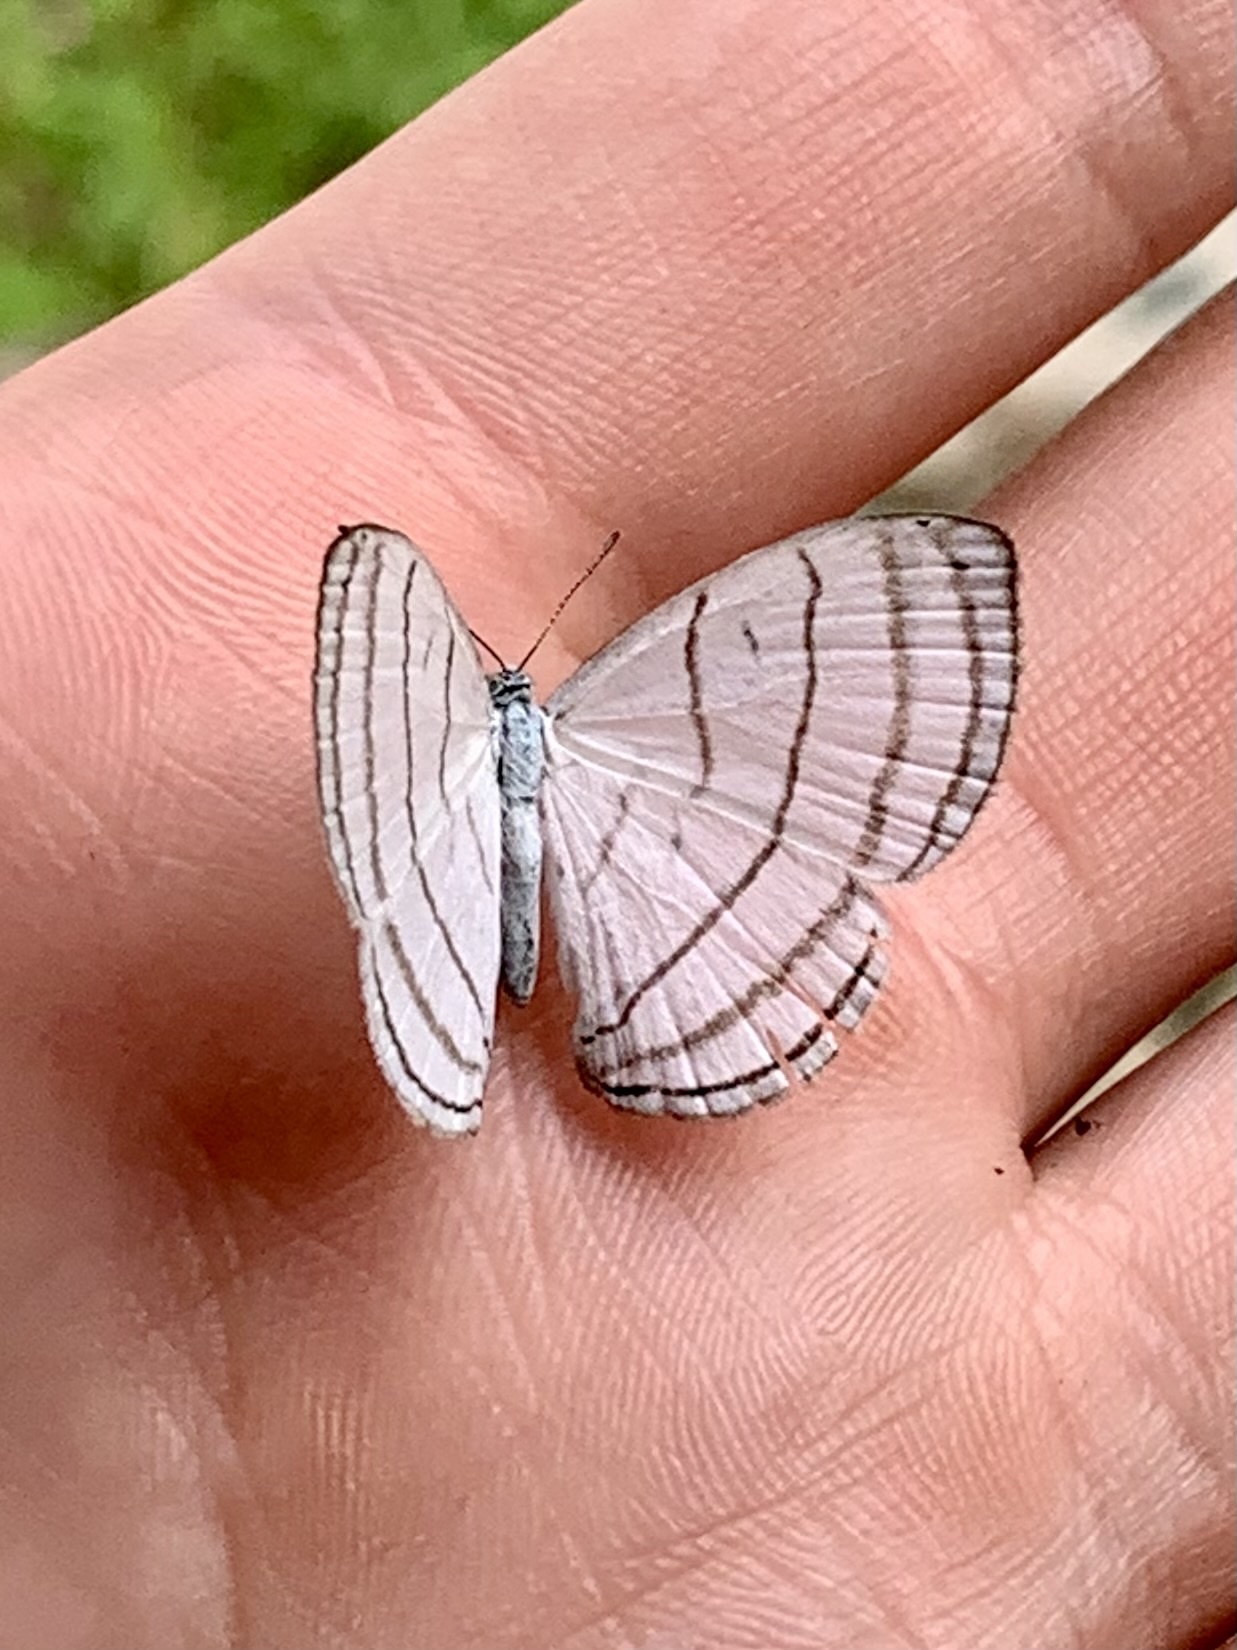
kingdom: Animalia
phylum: Arthropoda
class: Insecta
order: Lepidoptera
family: Riodinidae
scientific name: Riodinidae
